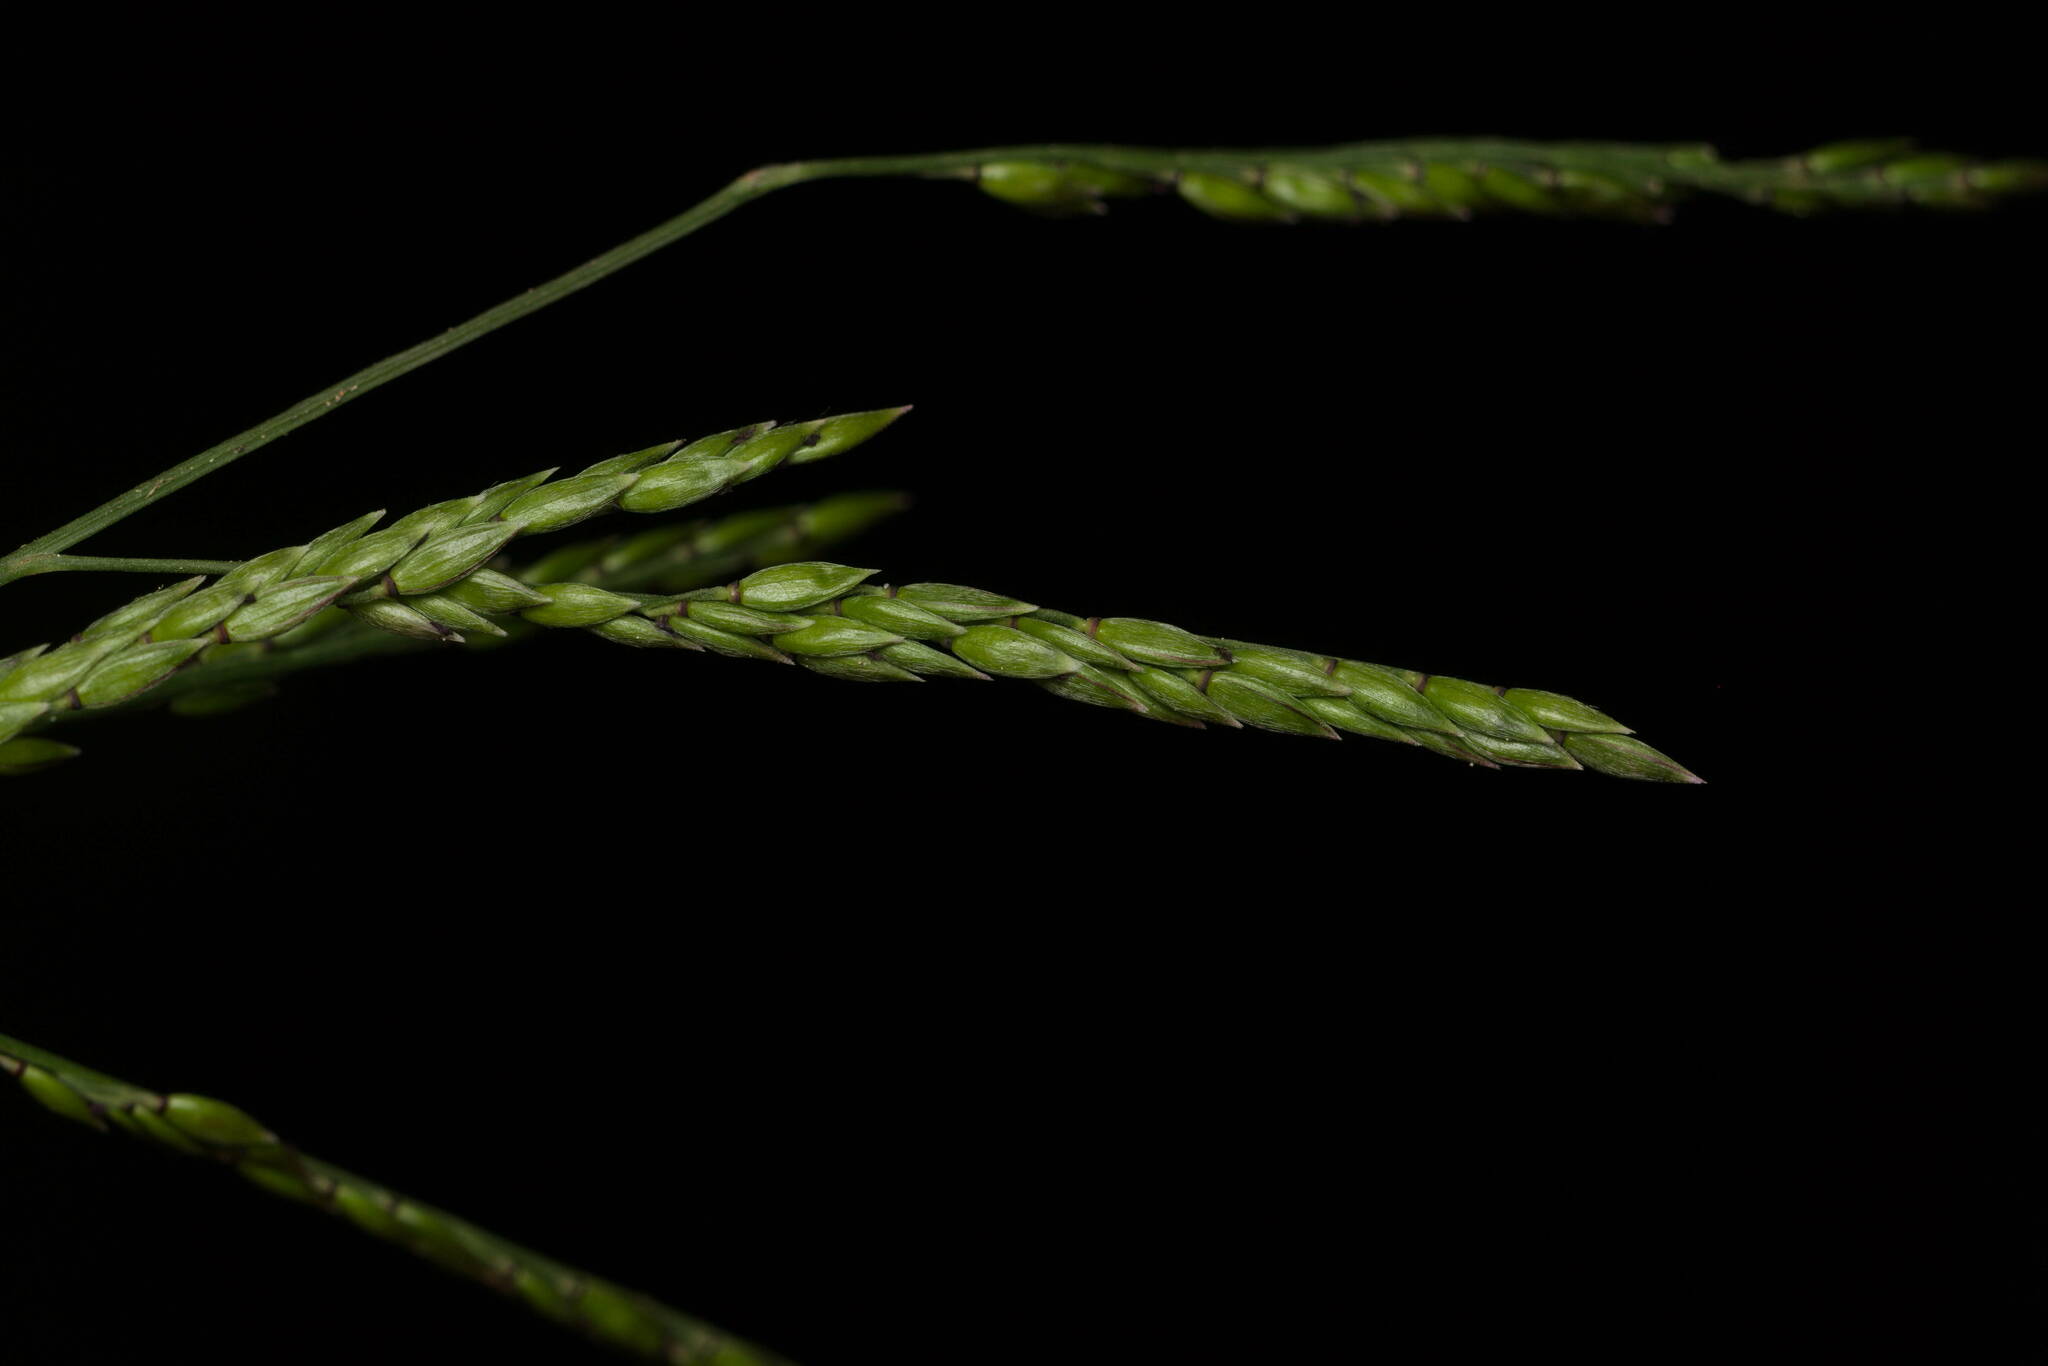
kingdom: Plantae
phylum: Tracheophyta
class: Liliopsida
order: Poales
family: Poaceae
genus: Eriochloa
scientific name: Eriochloa procera
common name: Spring grass
